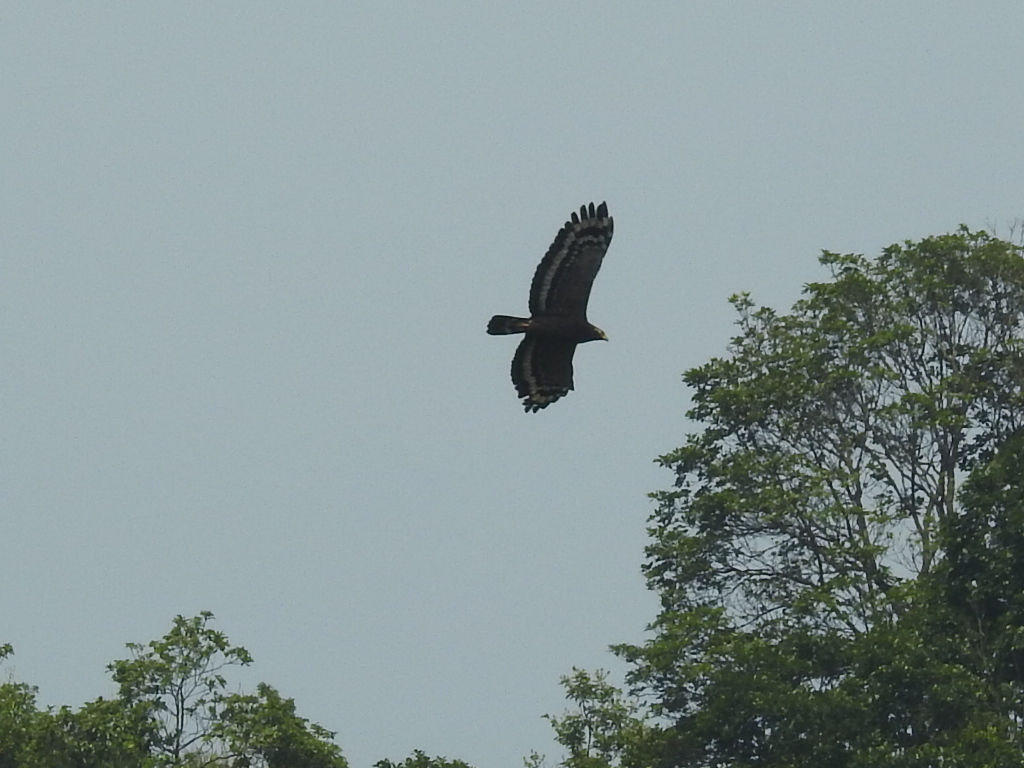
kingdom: Animalia
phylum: Chordata
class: Aves
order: Accipitriformes
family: Accipitridae
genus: Spilornis
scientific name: Spilornis cheela
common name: Crested serpent eagle
